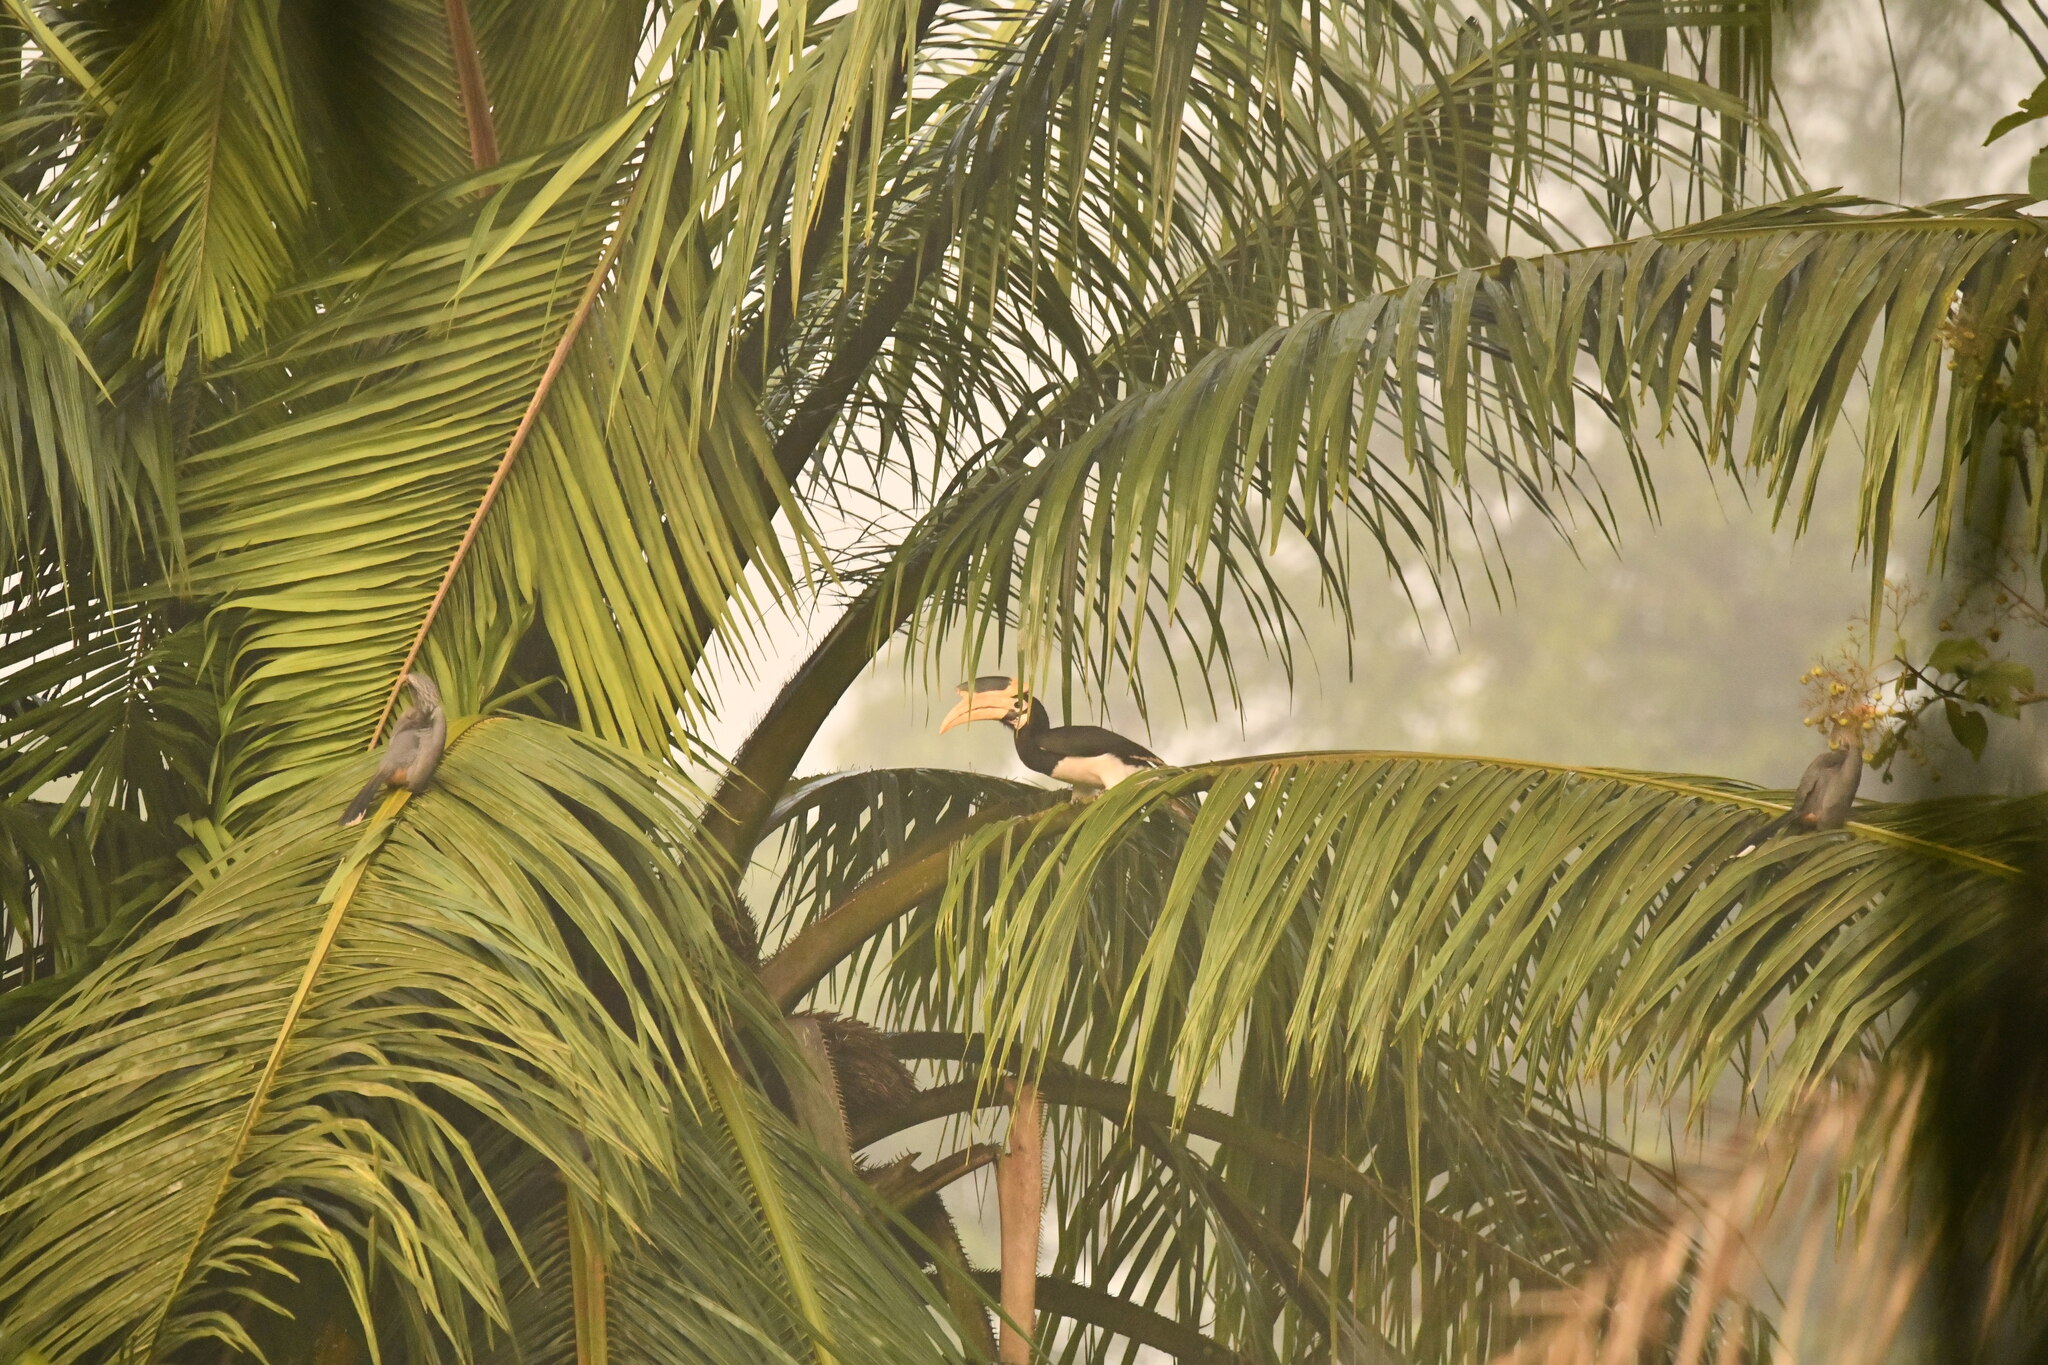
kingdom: Animalia
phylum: Chordata
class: Aves
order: Bucerotiformes
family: Bucerotidae
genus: Ocyceros
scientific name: Ocyceros griseus
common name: Malabar grey hornbill
